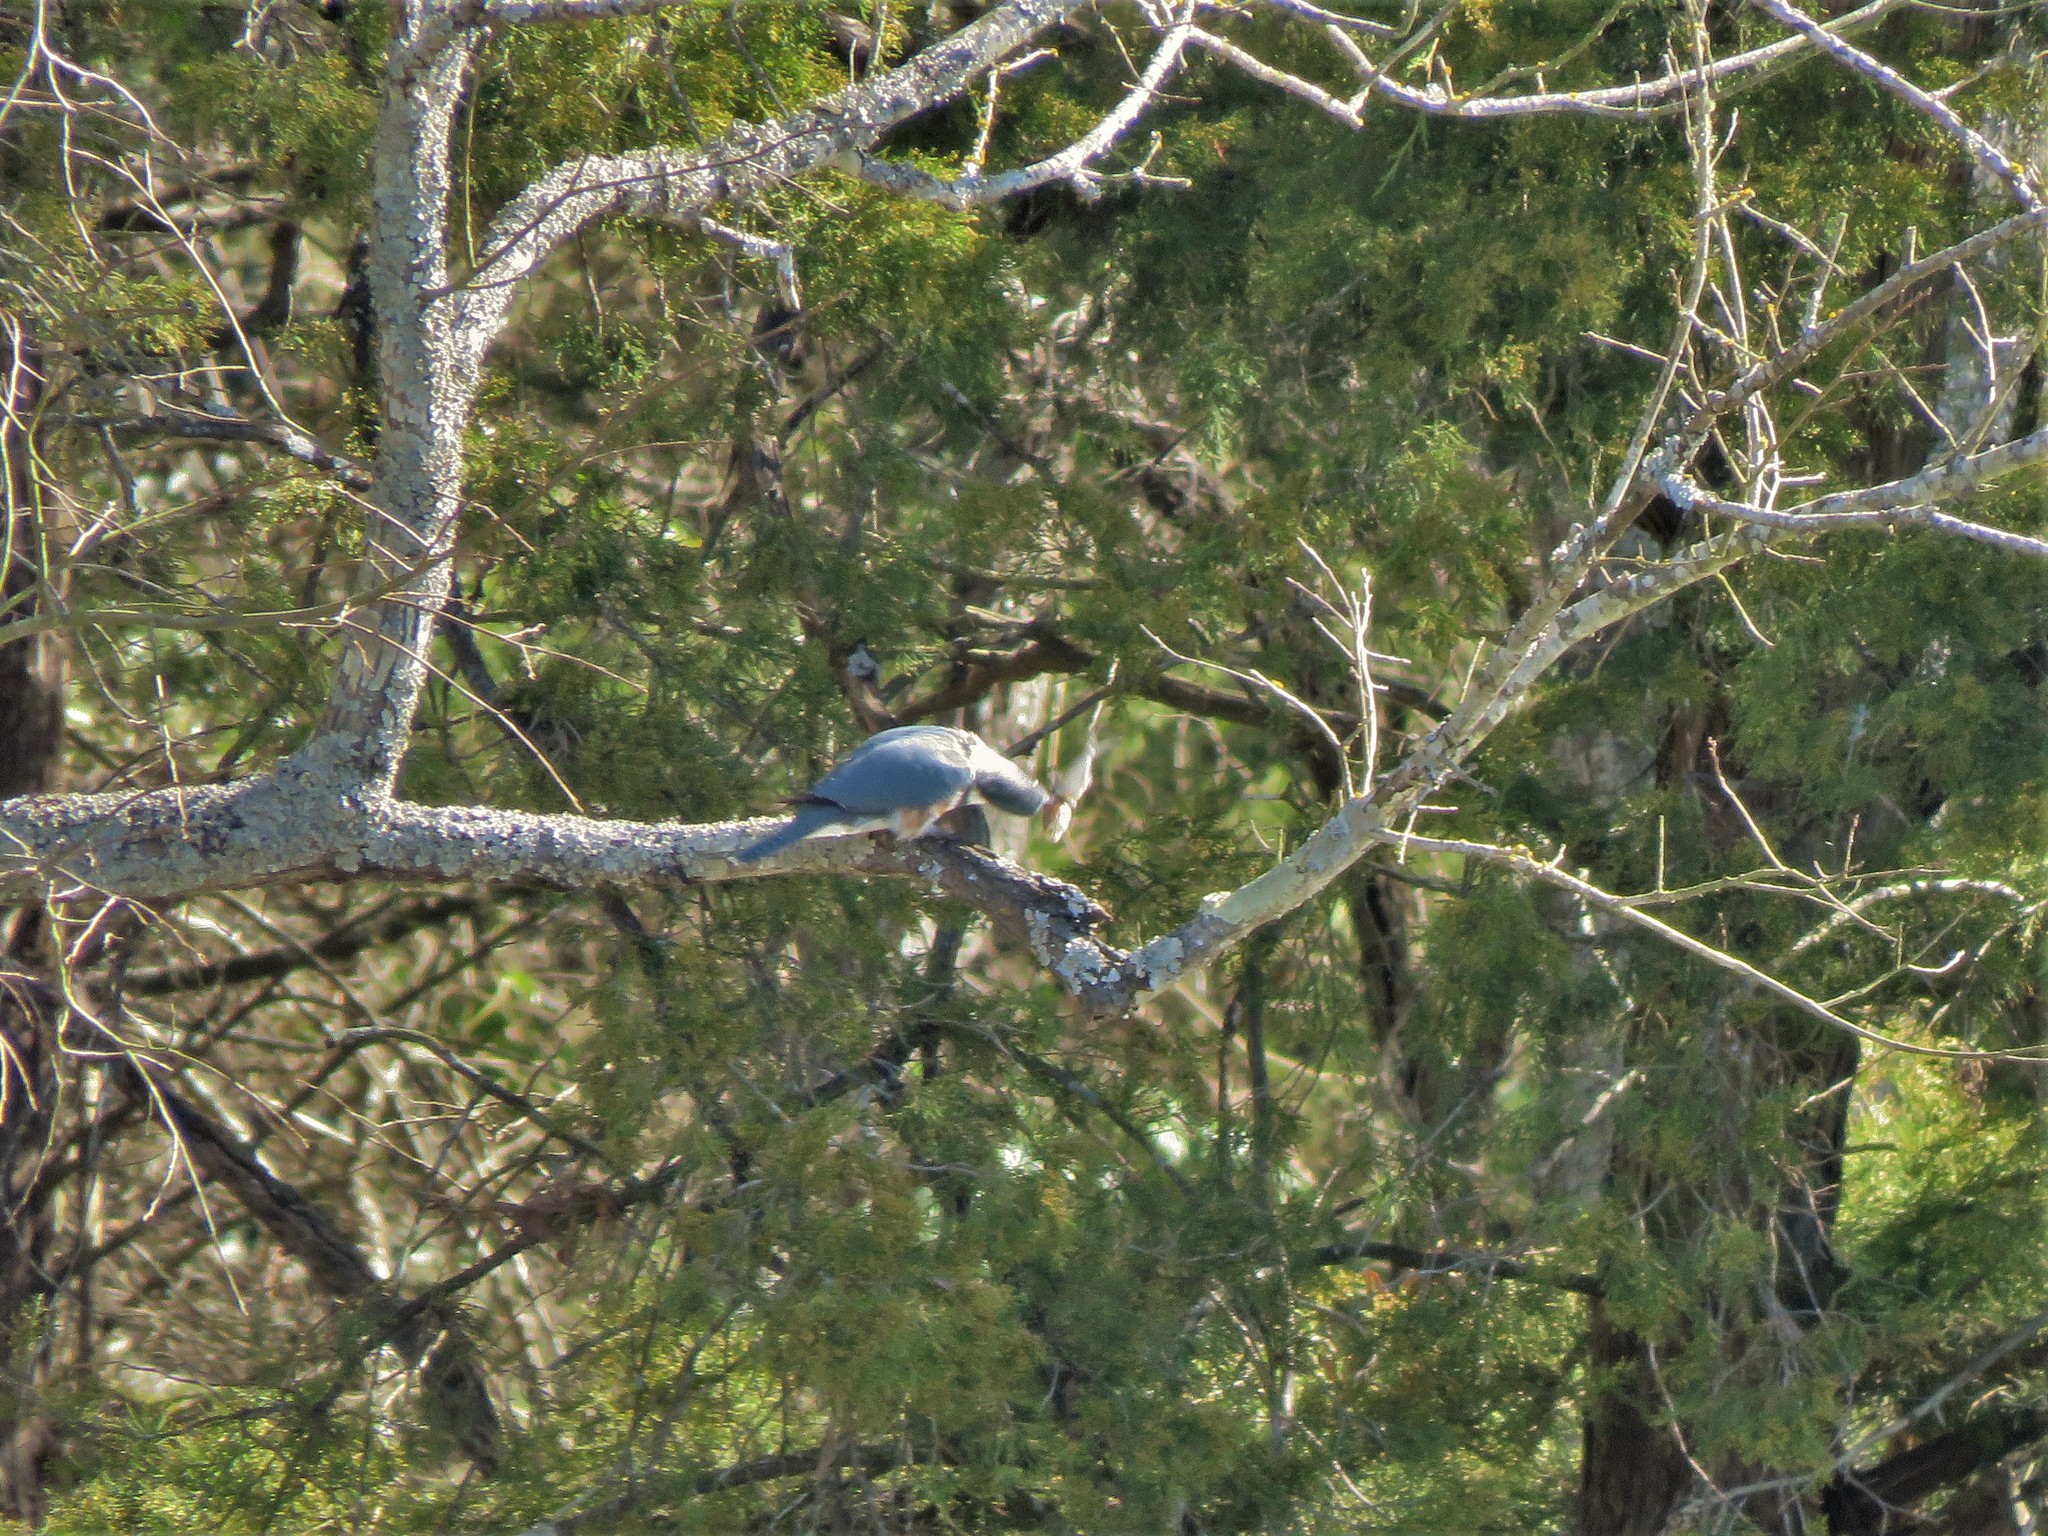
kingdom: Animalia
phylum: Chordata
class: Aves
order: Coraciiformes
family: Alcedinidae
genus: Megaceryle
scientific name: Megaceryle alcyon
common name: Belted kingfisher
